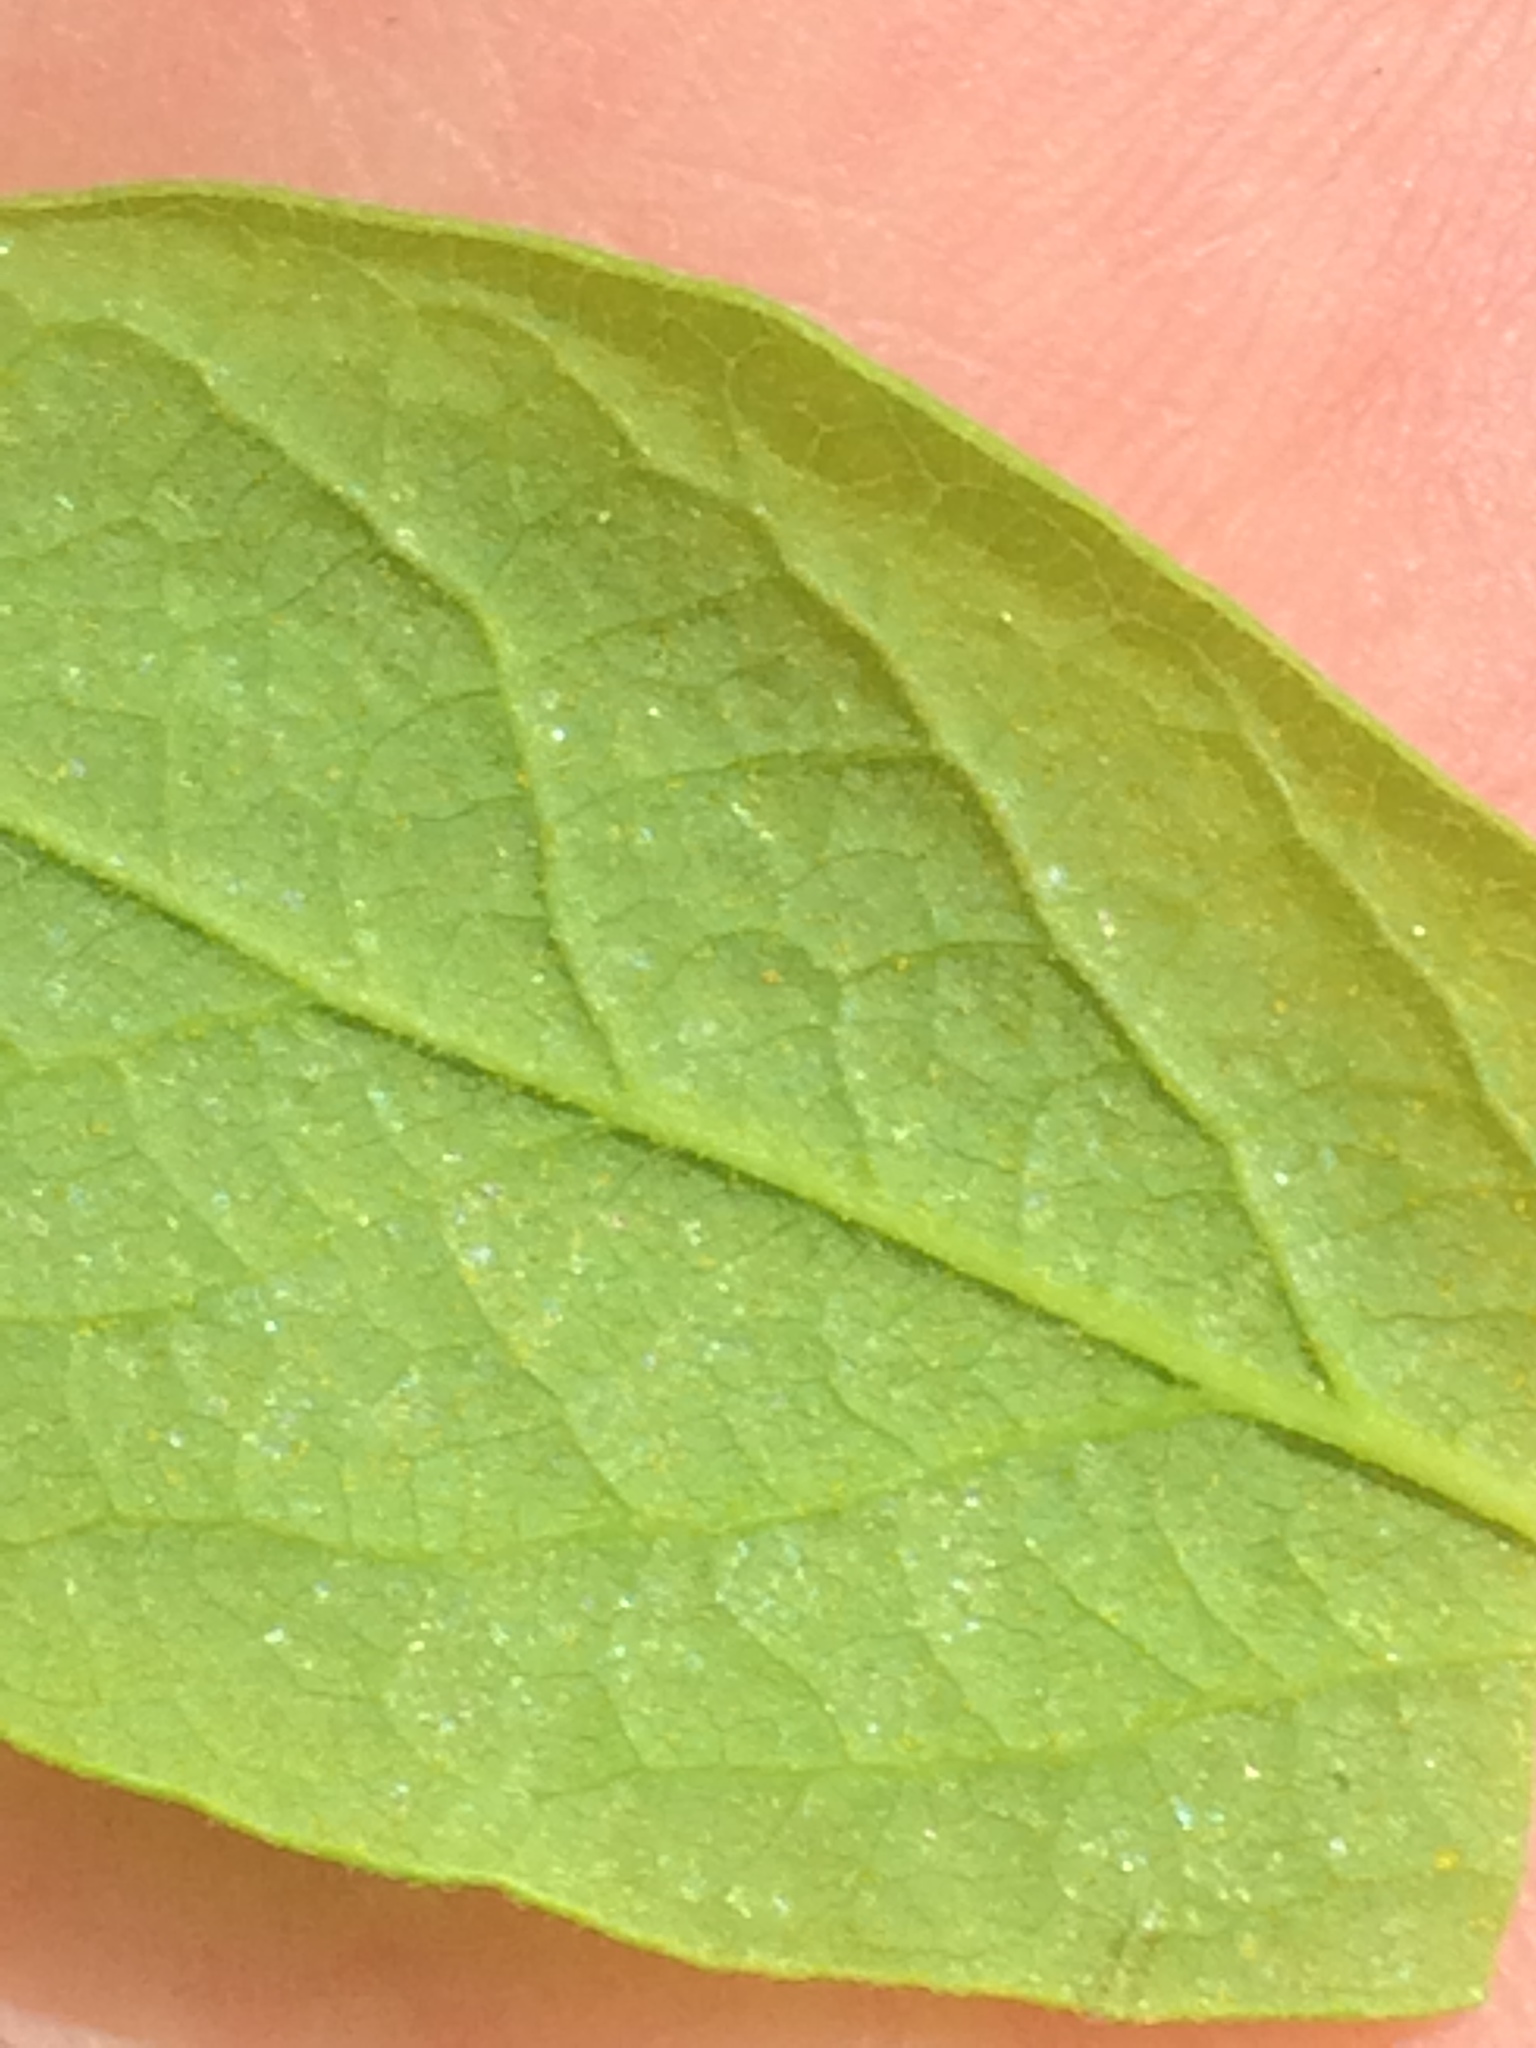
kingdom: Plantae
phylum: Tracheophyta
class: Magnoliopsida
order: Ericales
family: Ericaceae
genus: Gaylussacia
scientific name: Gaylussacia baccata
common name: Black huckleberry
